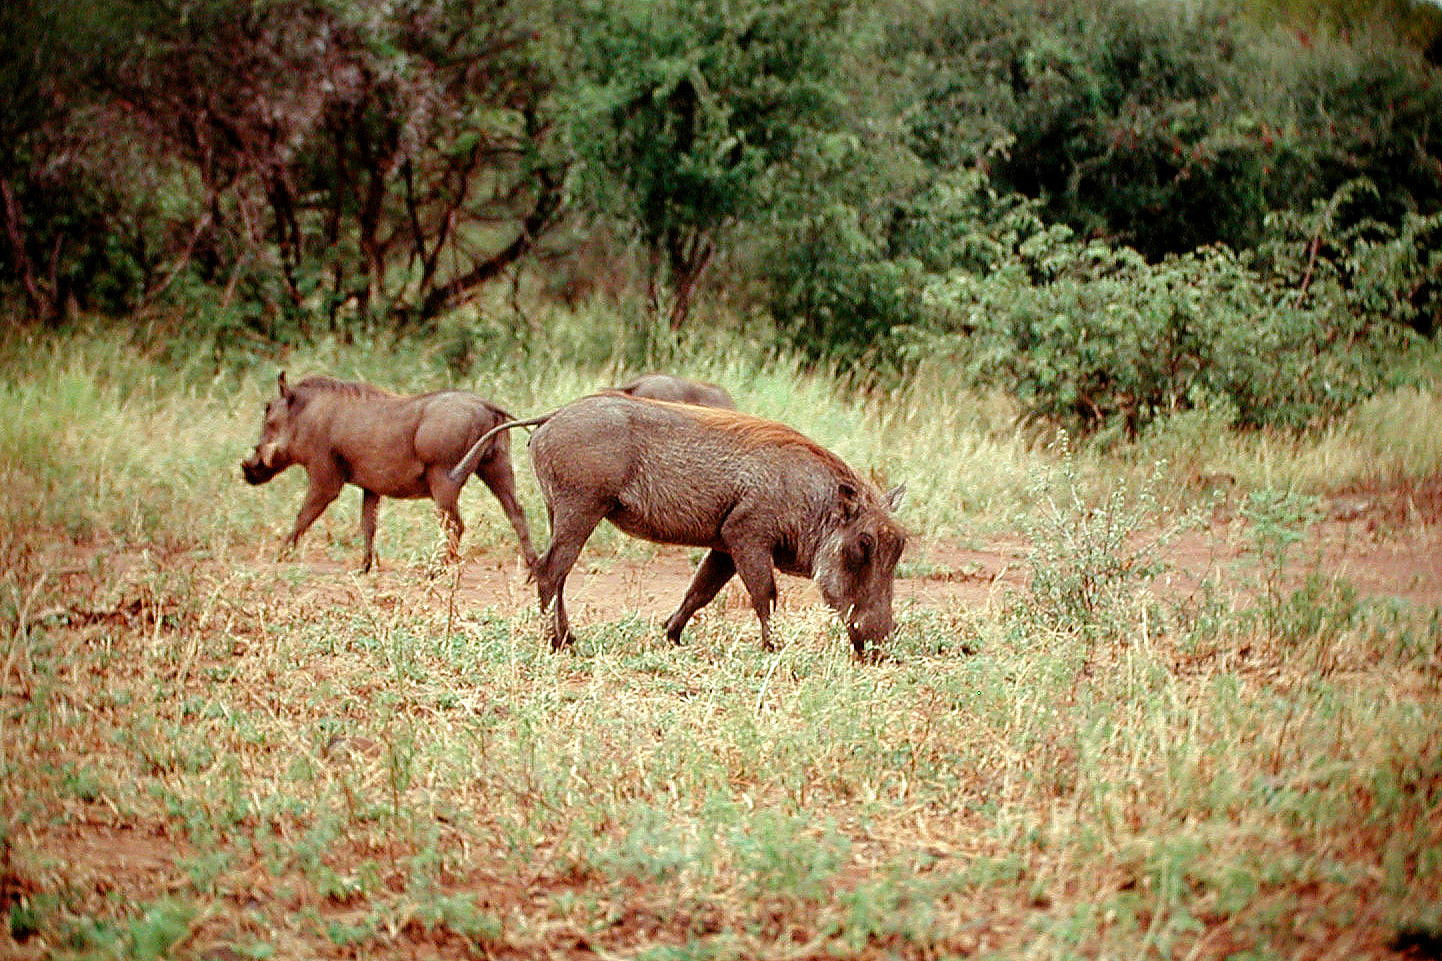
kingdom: Animalia
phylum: Chordata
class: Mammalia
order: Artiodactyla
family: Suidae
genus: Phacochoerus
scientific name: Phacochoerus africanus
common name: Common warthog
